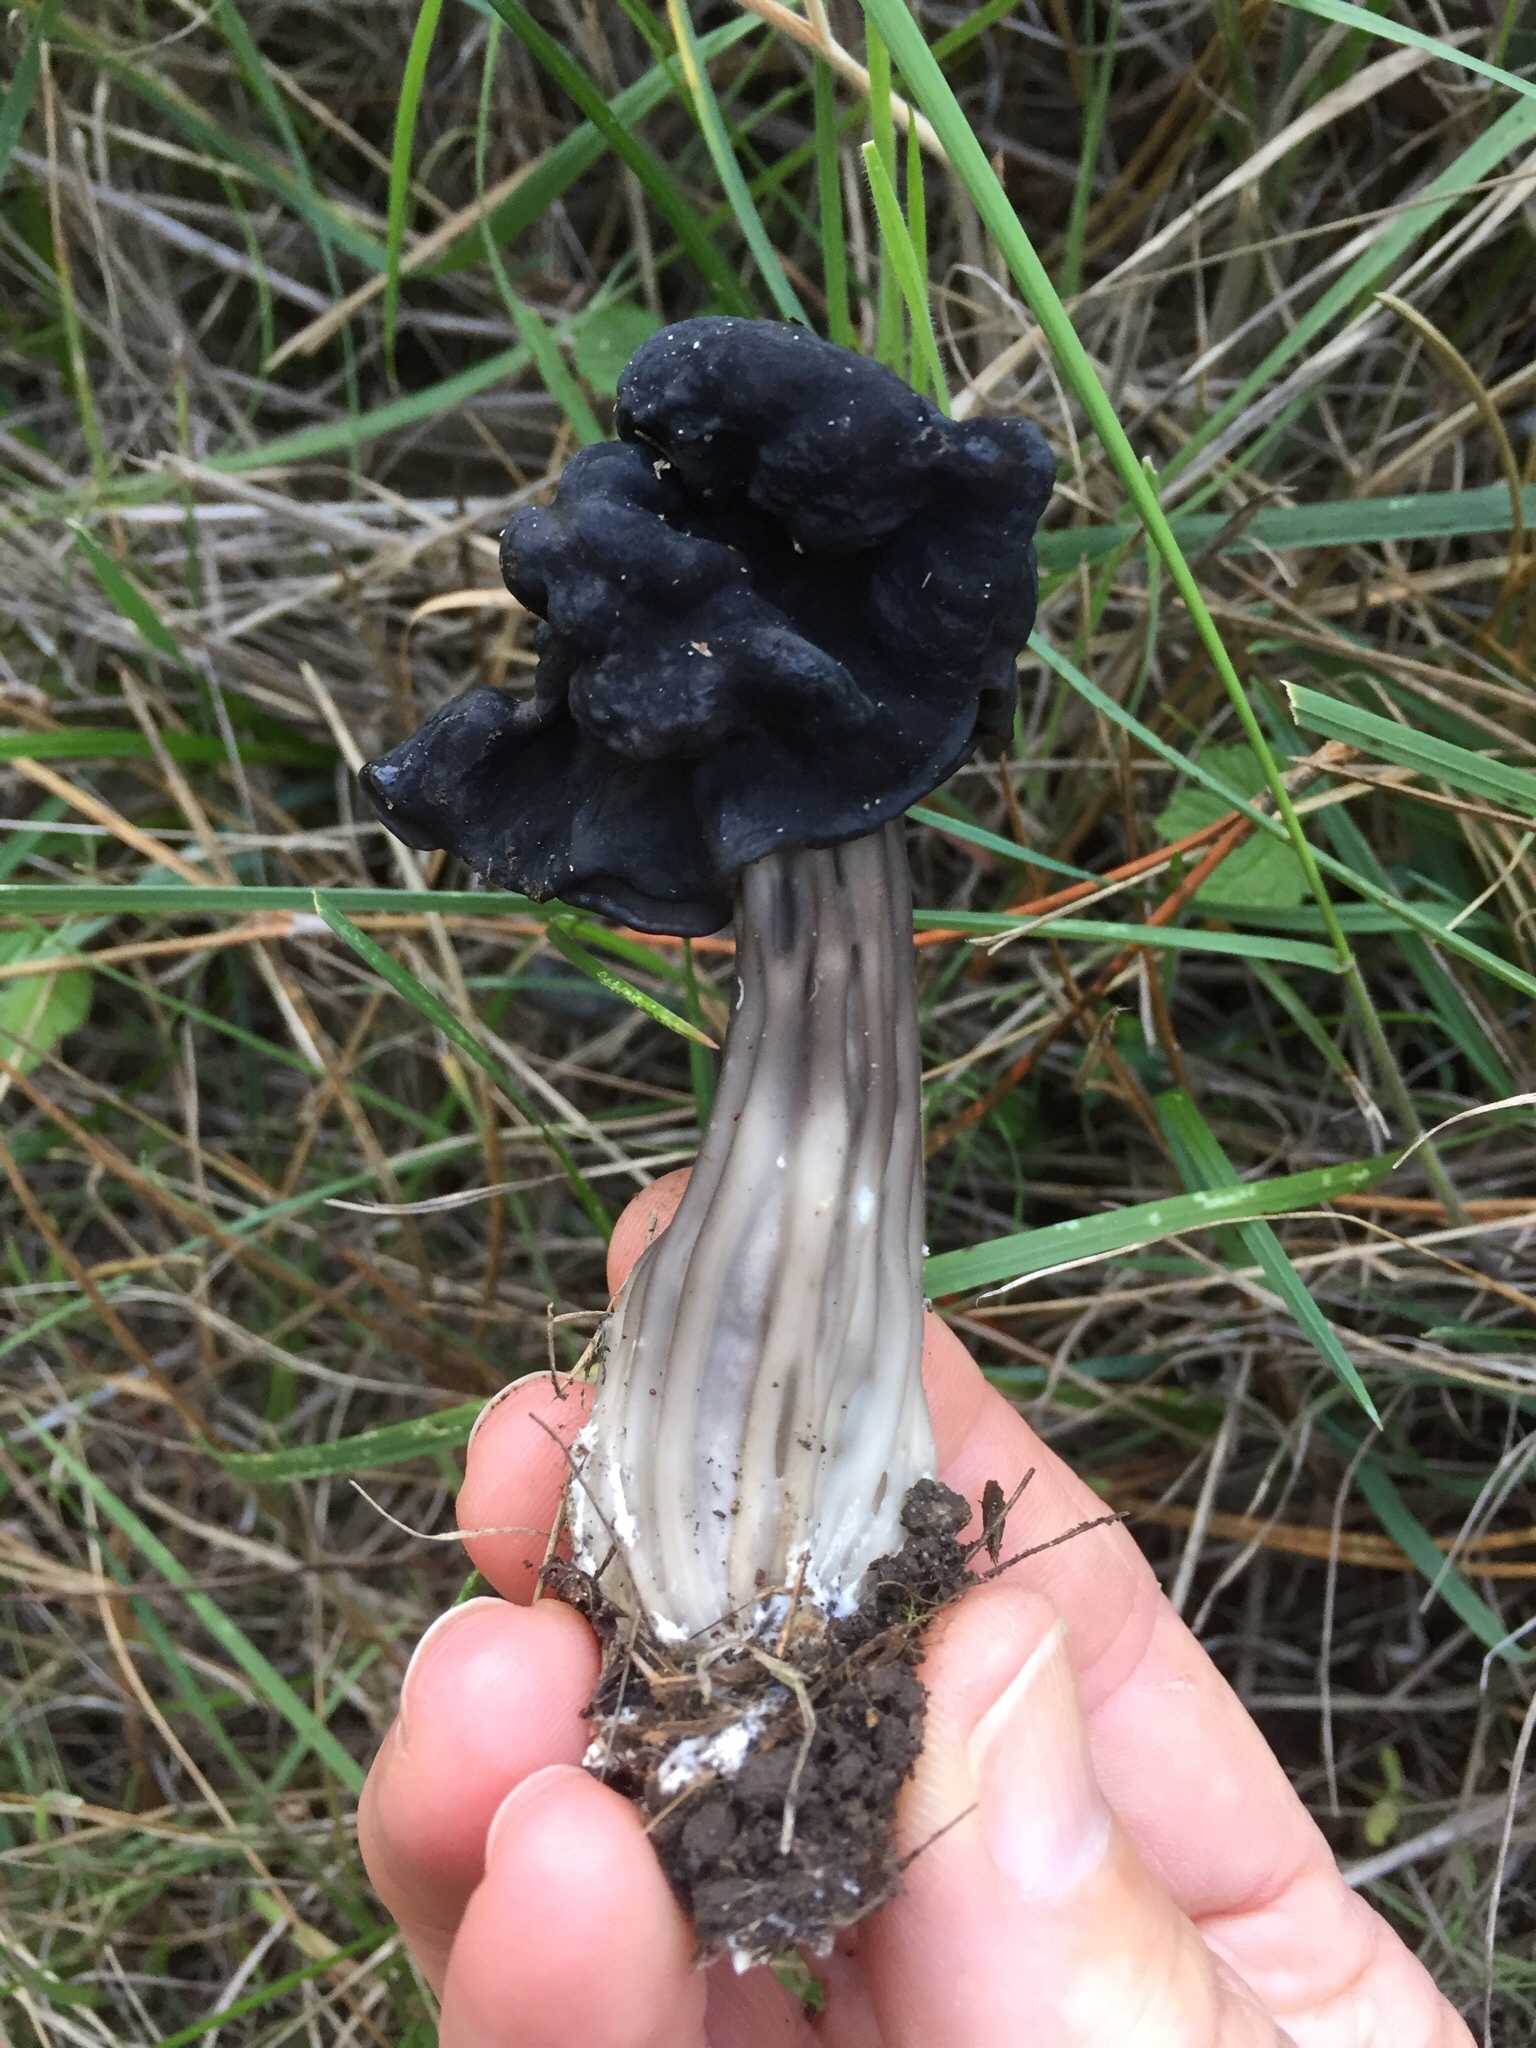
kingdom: Fungi
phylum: Ascomycota
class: Pezizomycetes
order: Pezizales
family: Helvellaceae
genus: Helvella
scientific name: Helvella vespertina
